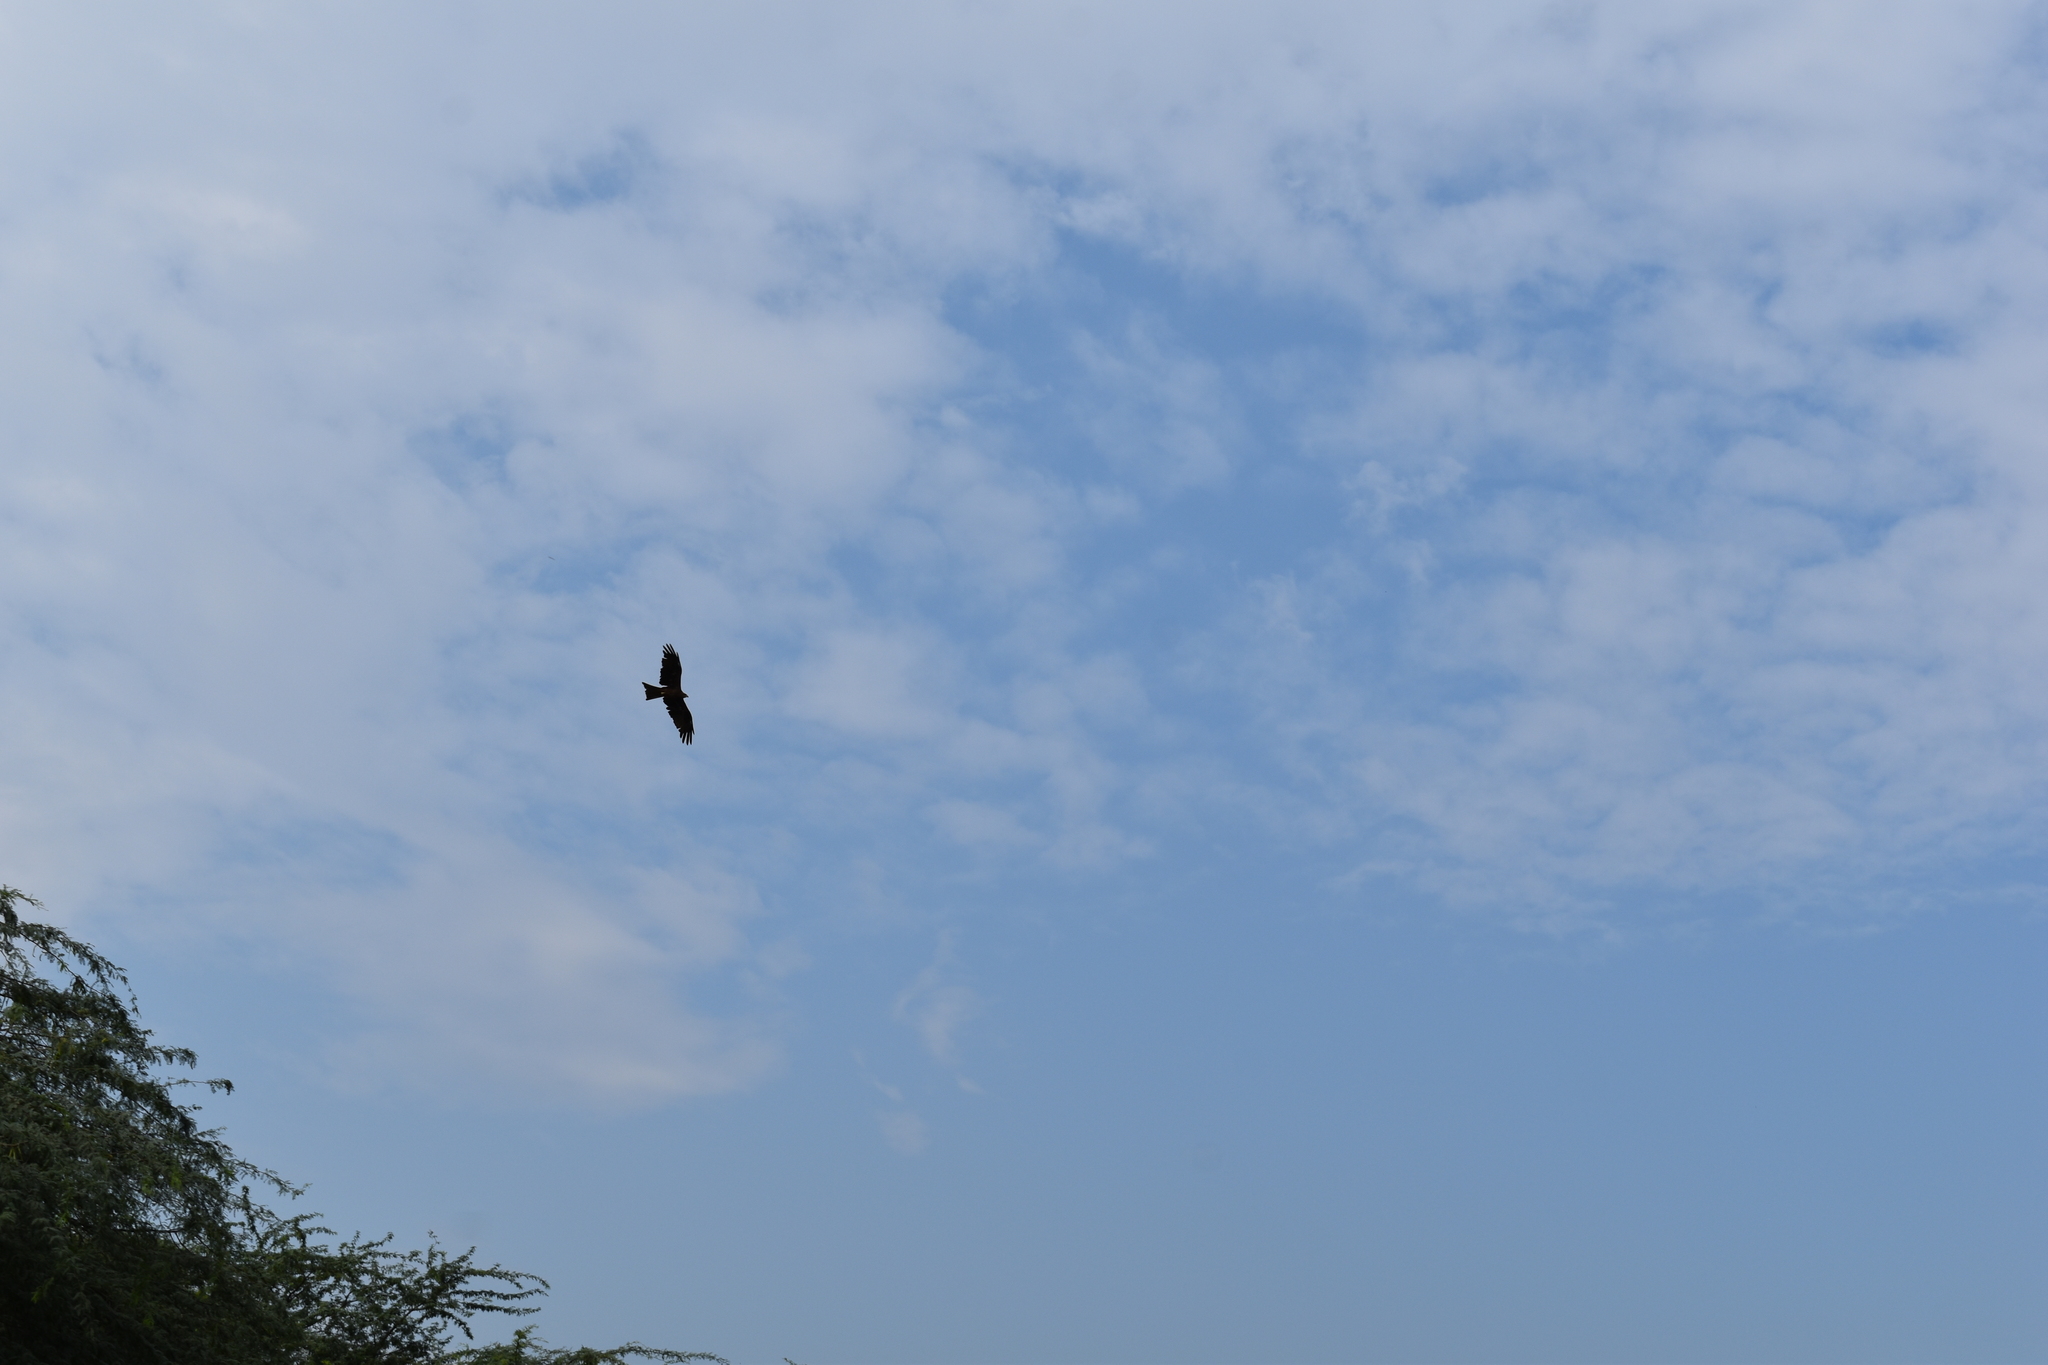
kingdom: Animalia
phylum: Chordata
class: Aves
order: Accipitriformes
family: Accipitridae
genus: Milvus
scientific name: Milvus migrans
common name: Black kite
